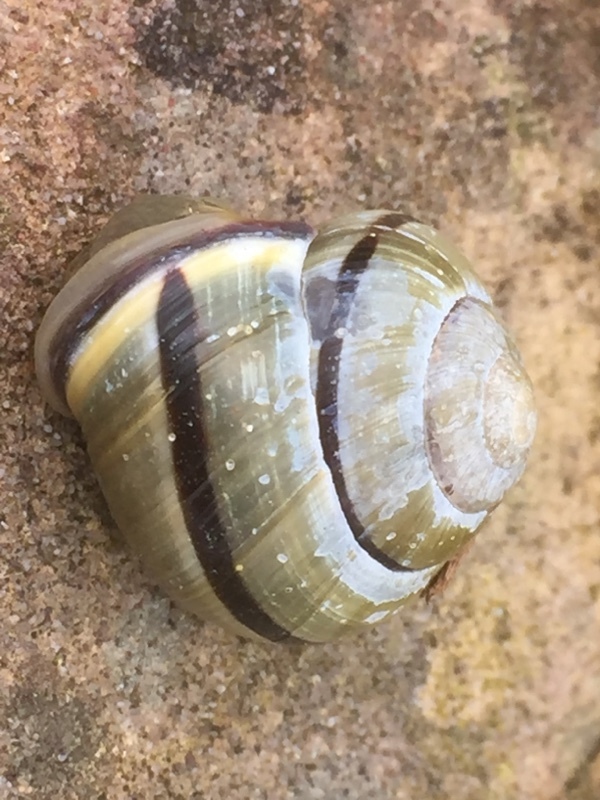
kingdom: Animalia
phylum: Mollusca
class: Gastropoda
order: Stylommatophora
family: Helicidae
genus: Cepaea
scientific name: Cepaea nemoralis
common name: Grovesnail
